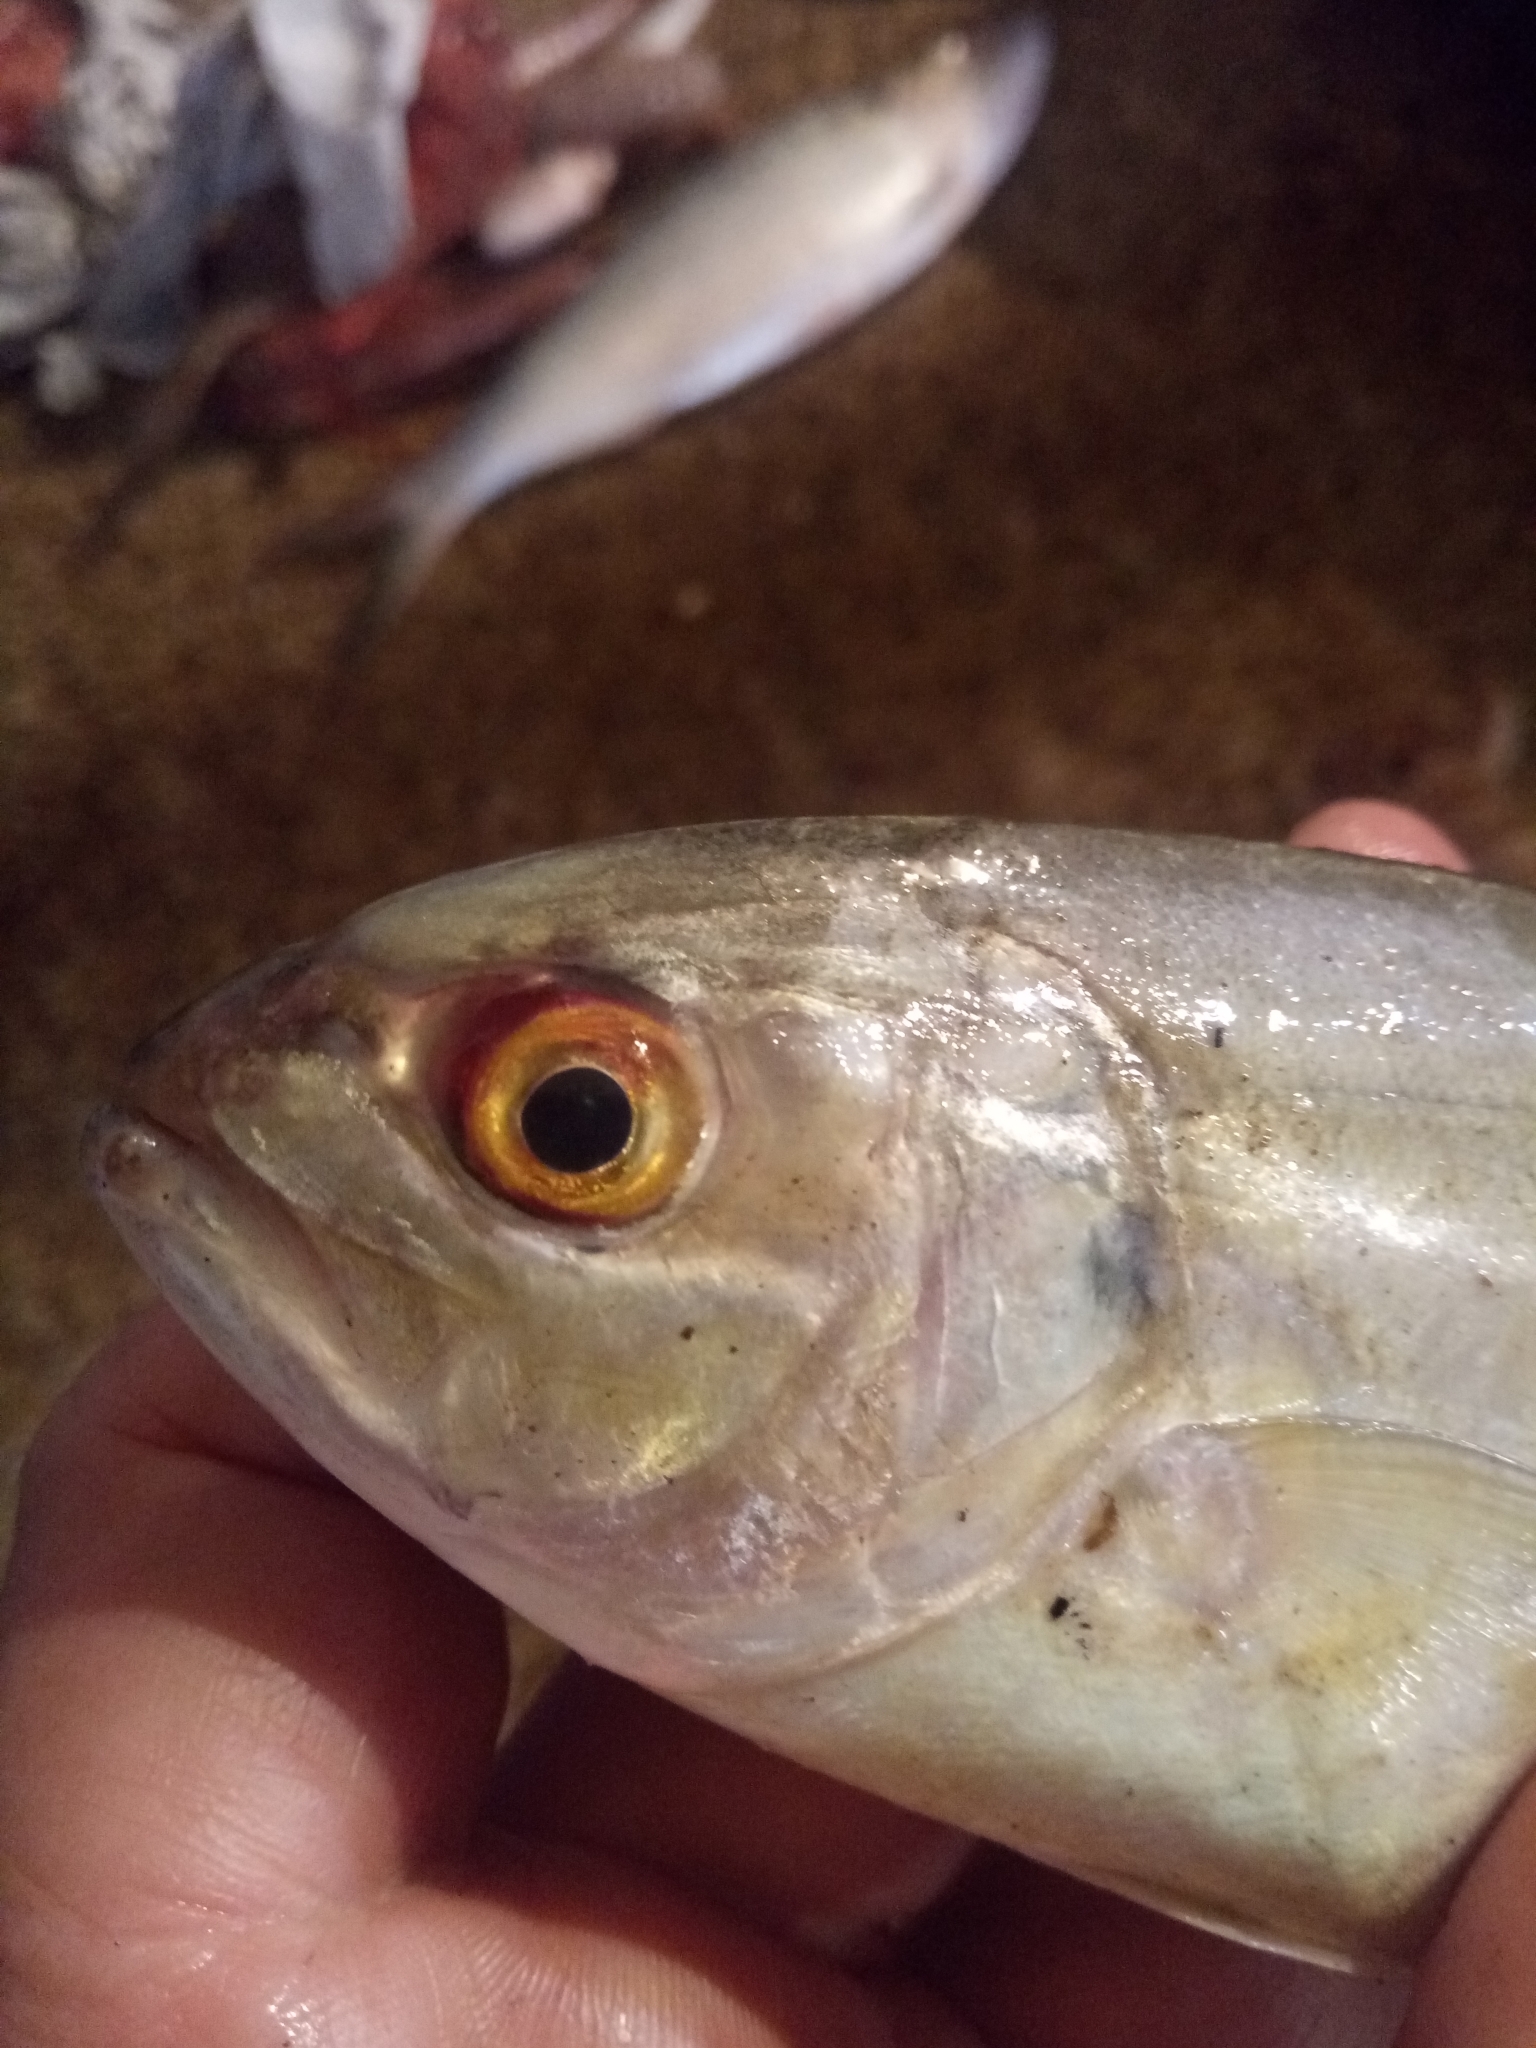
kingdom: Animalia
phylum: Chordata
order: Perciformes
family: Carangidae
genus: Caranx
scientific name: Caranx crysos
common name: Blue runner
